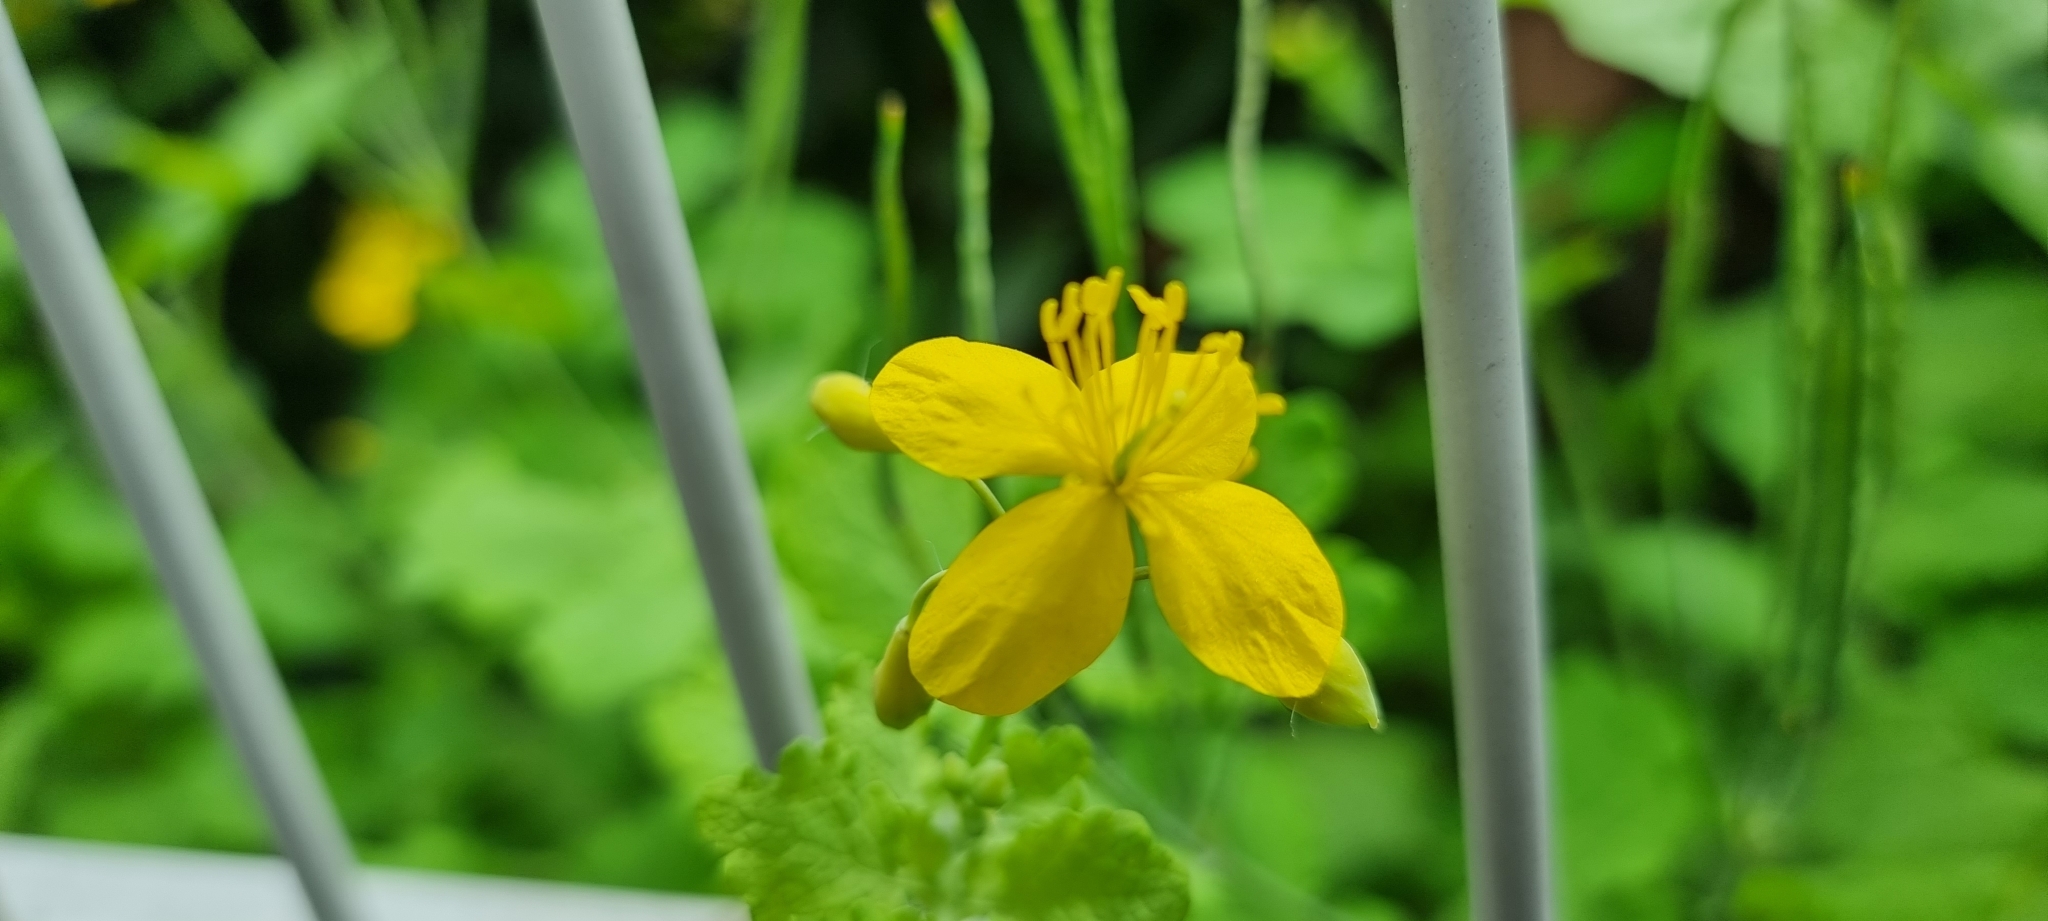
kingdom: Plantae
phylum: Tracheophyta
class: Magnoliopsida
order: Ranunculales
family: Papaveraceae
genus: Chelidonium
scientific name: Chelidonium majus
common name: Greater celandine
